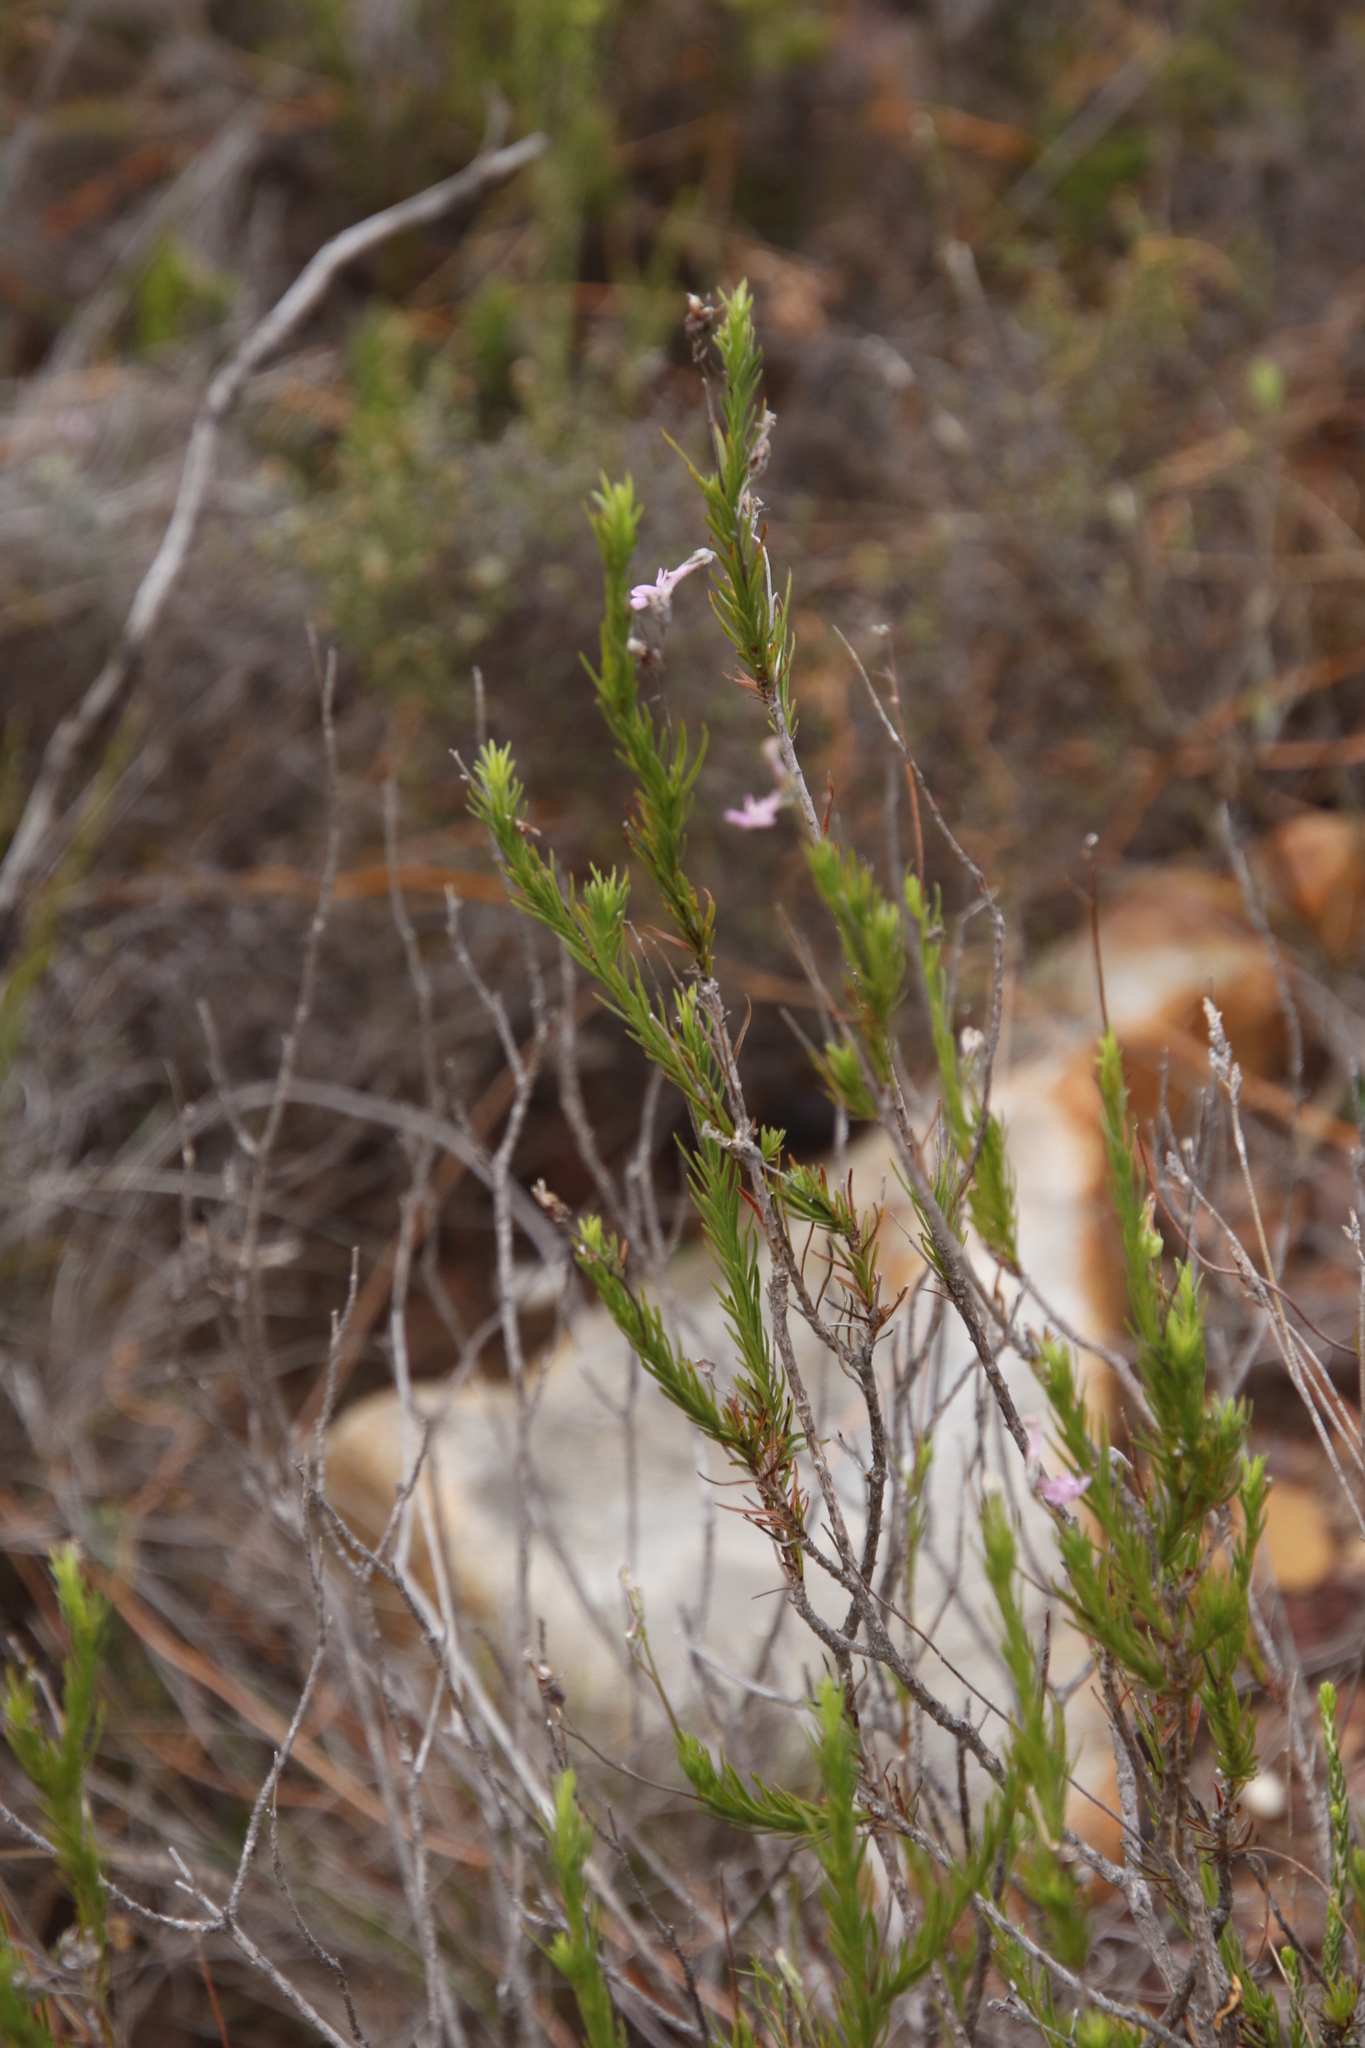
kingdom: Plantae
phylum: Tracheophyta
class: Magnoliopsida
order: Asterales
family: Campanulaceae
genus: Lobelia
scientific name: Lobelia pinifolia
